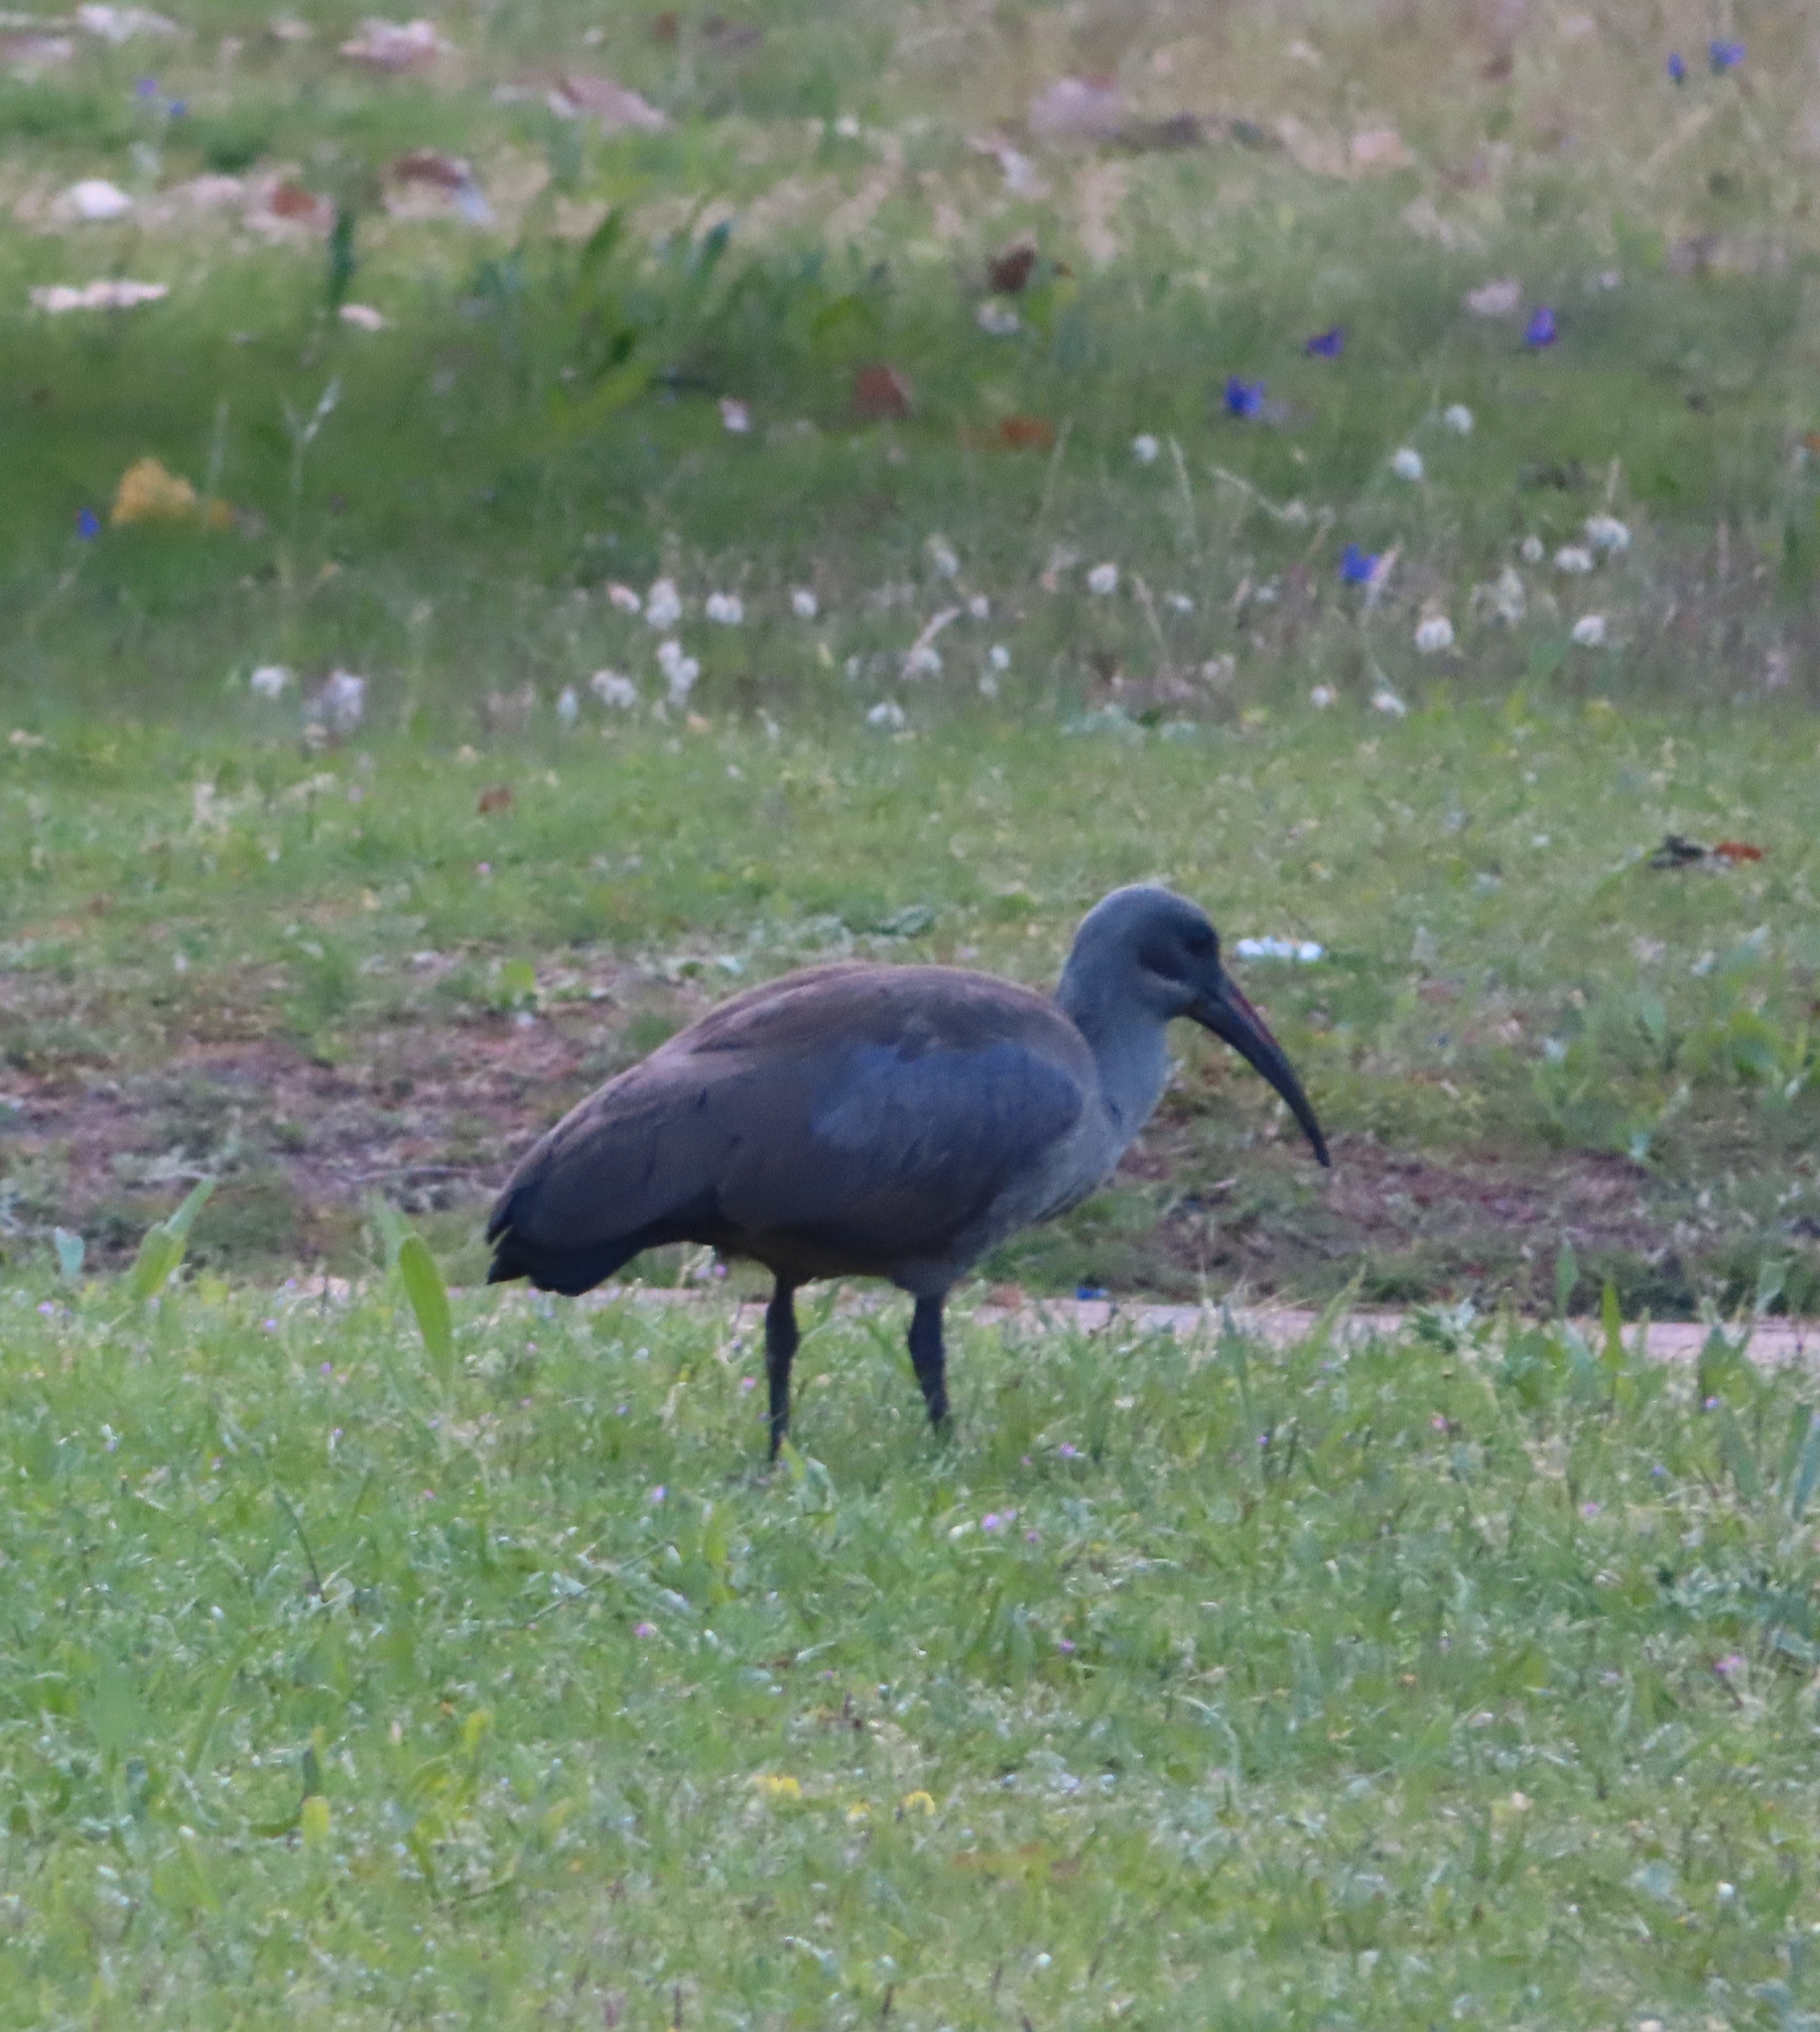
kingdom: Animalia
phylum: Chordata
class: Aves
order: Pelecaniformes
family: Threskiornithidae
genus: Bostrychia
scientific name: Bostrychia hagedash
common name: Hadada ibis
